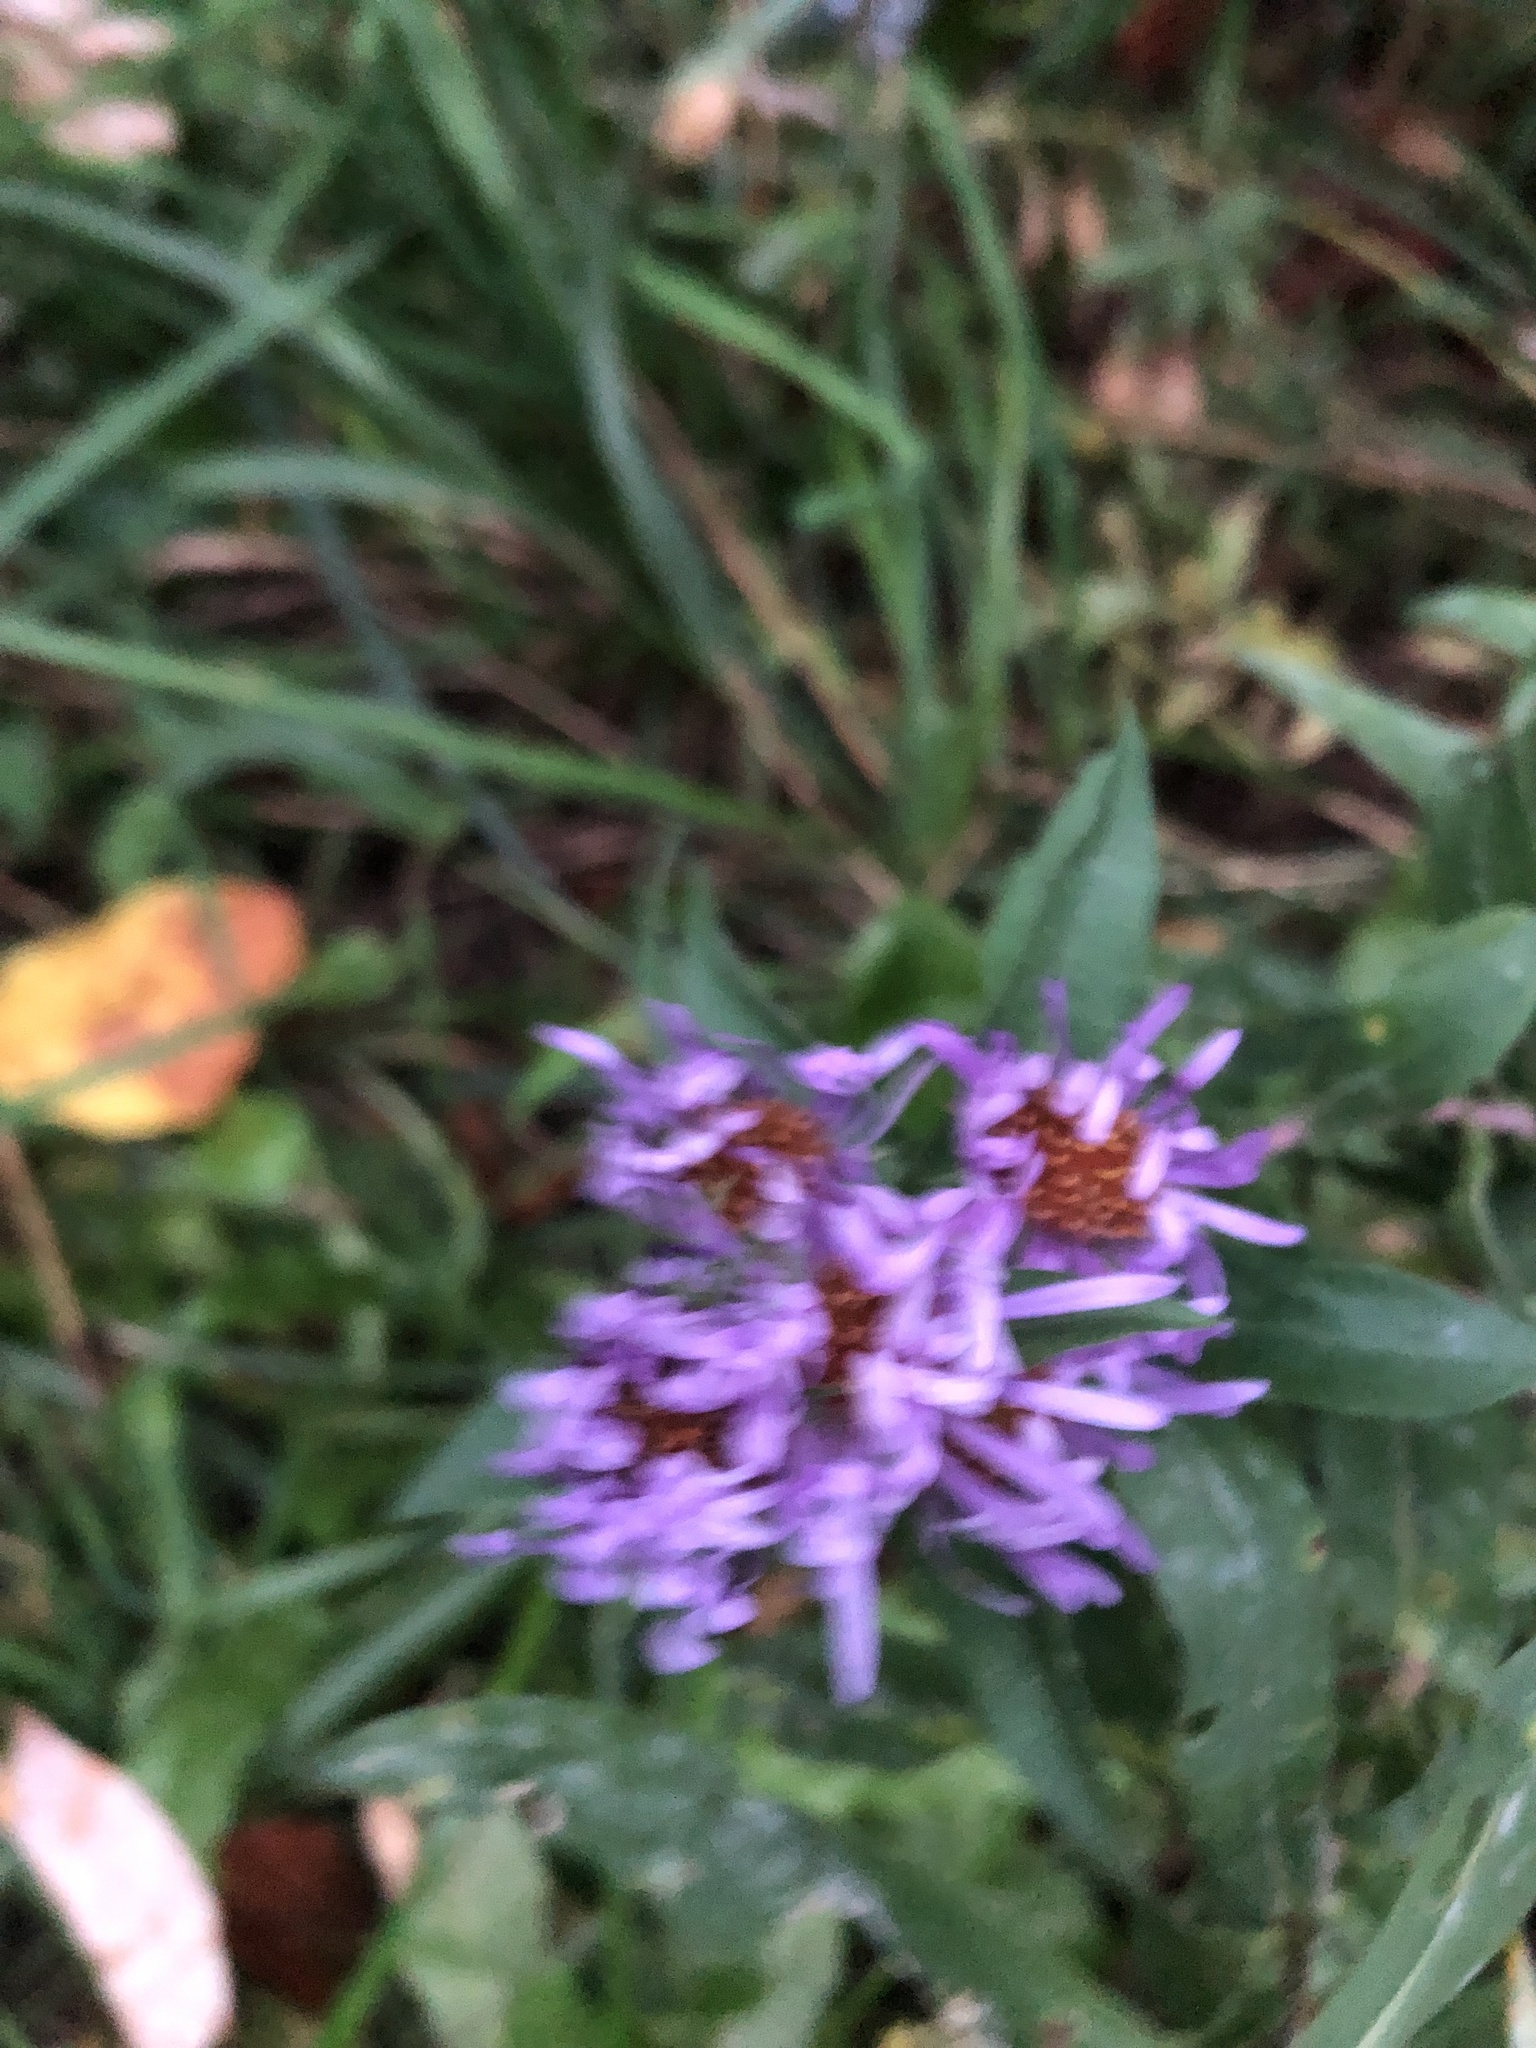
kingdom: Plantae
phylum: Tracheophyta
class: Magnoliopsida
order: Asterales
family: Asteraceae
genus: Symphyotrichum
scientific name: Symphyotrichum novae-angliae
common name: Michaelmas daisy
